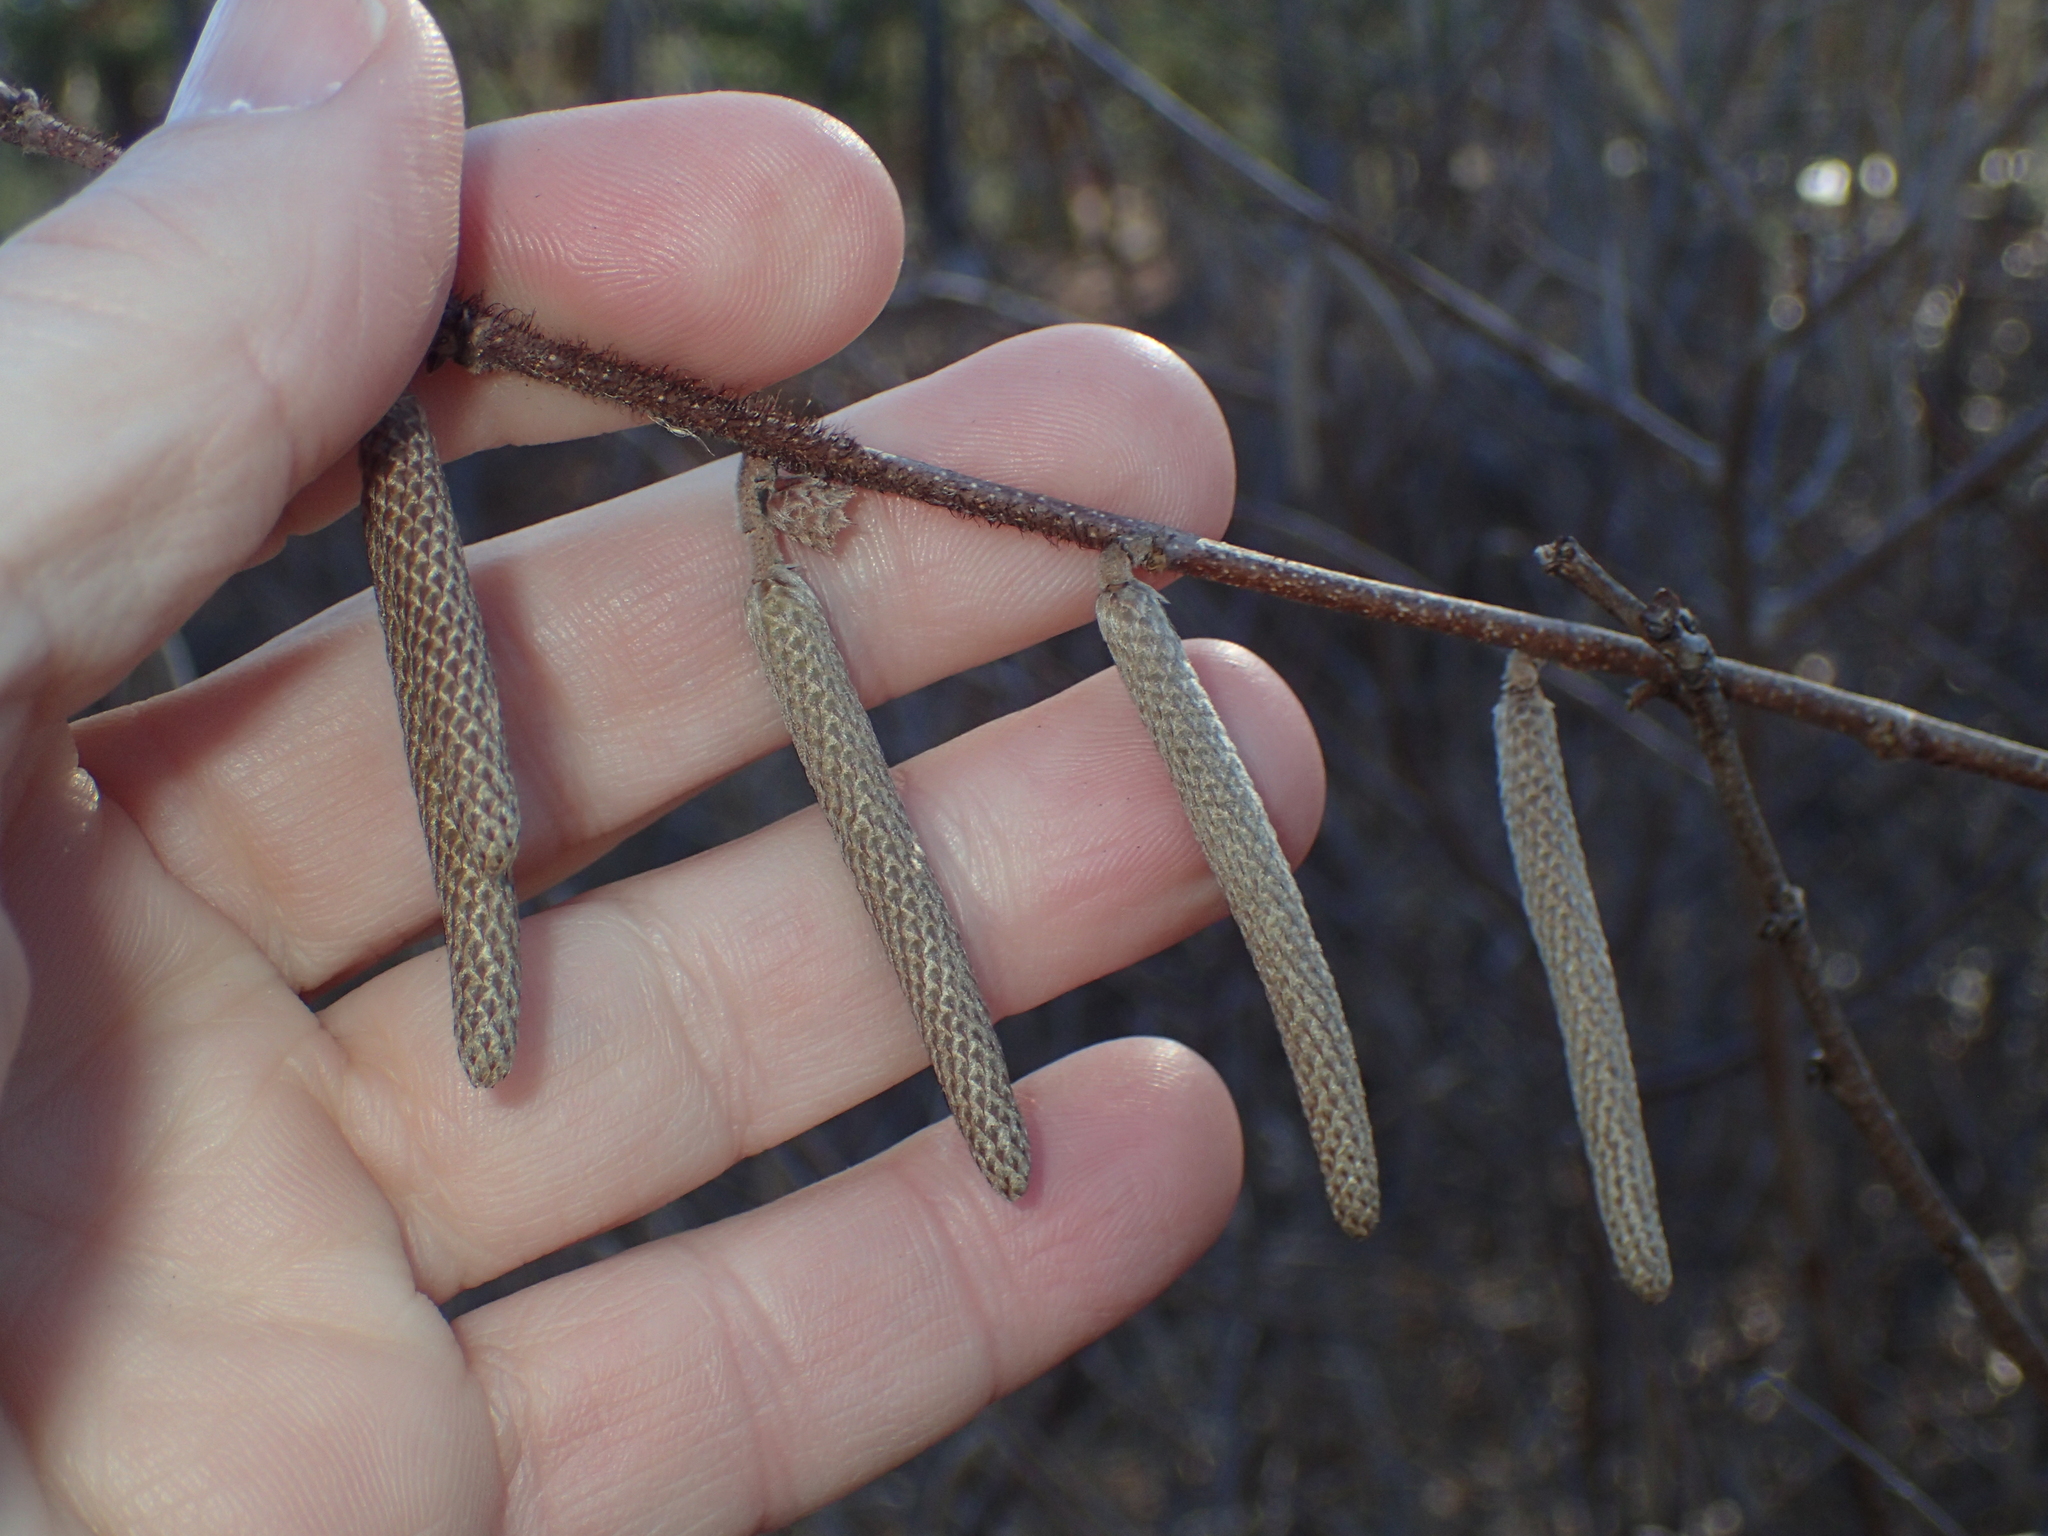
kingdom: Plantae
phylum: Tracheophyta
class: Magnoliopsida
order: Fagales
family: Betulaceae
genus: Corylus
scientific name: Corylus americana
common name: American hazel
